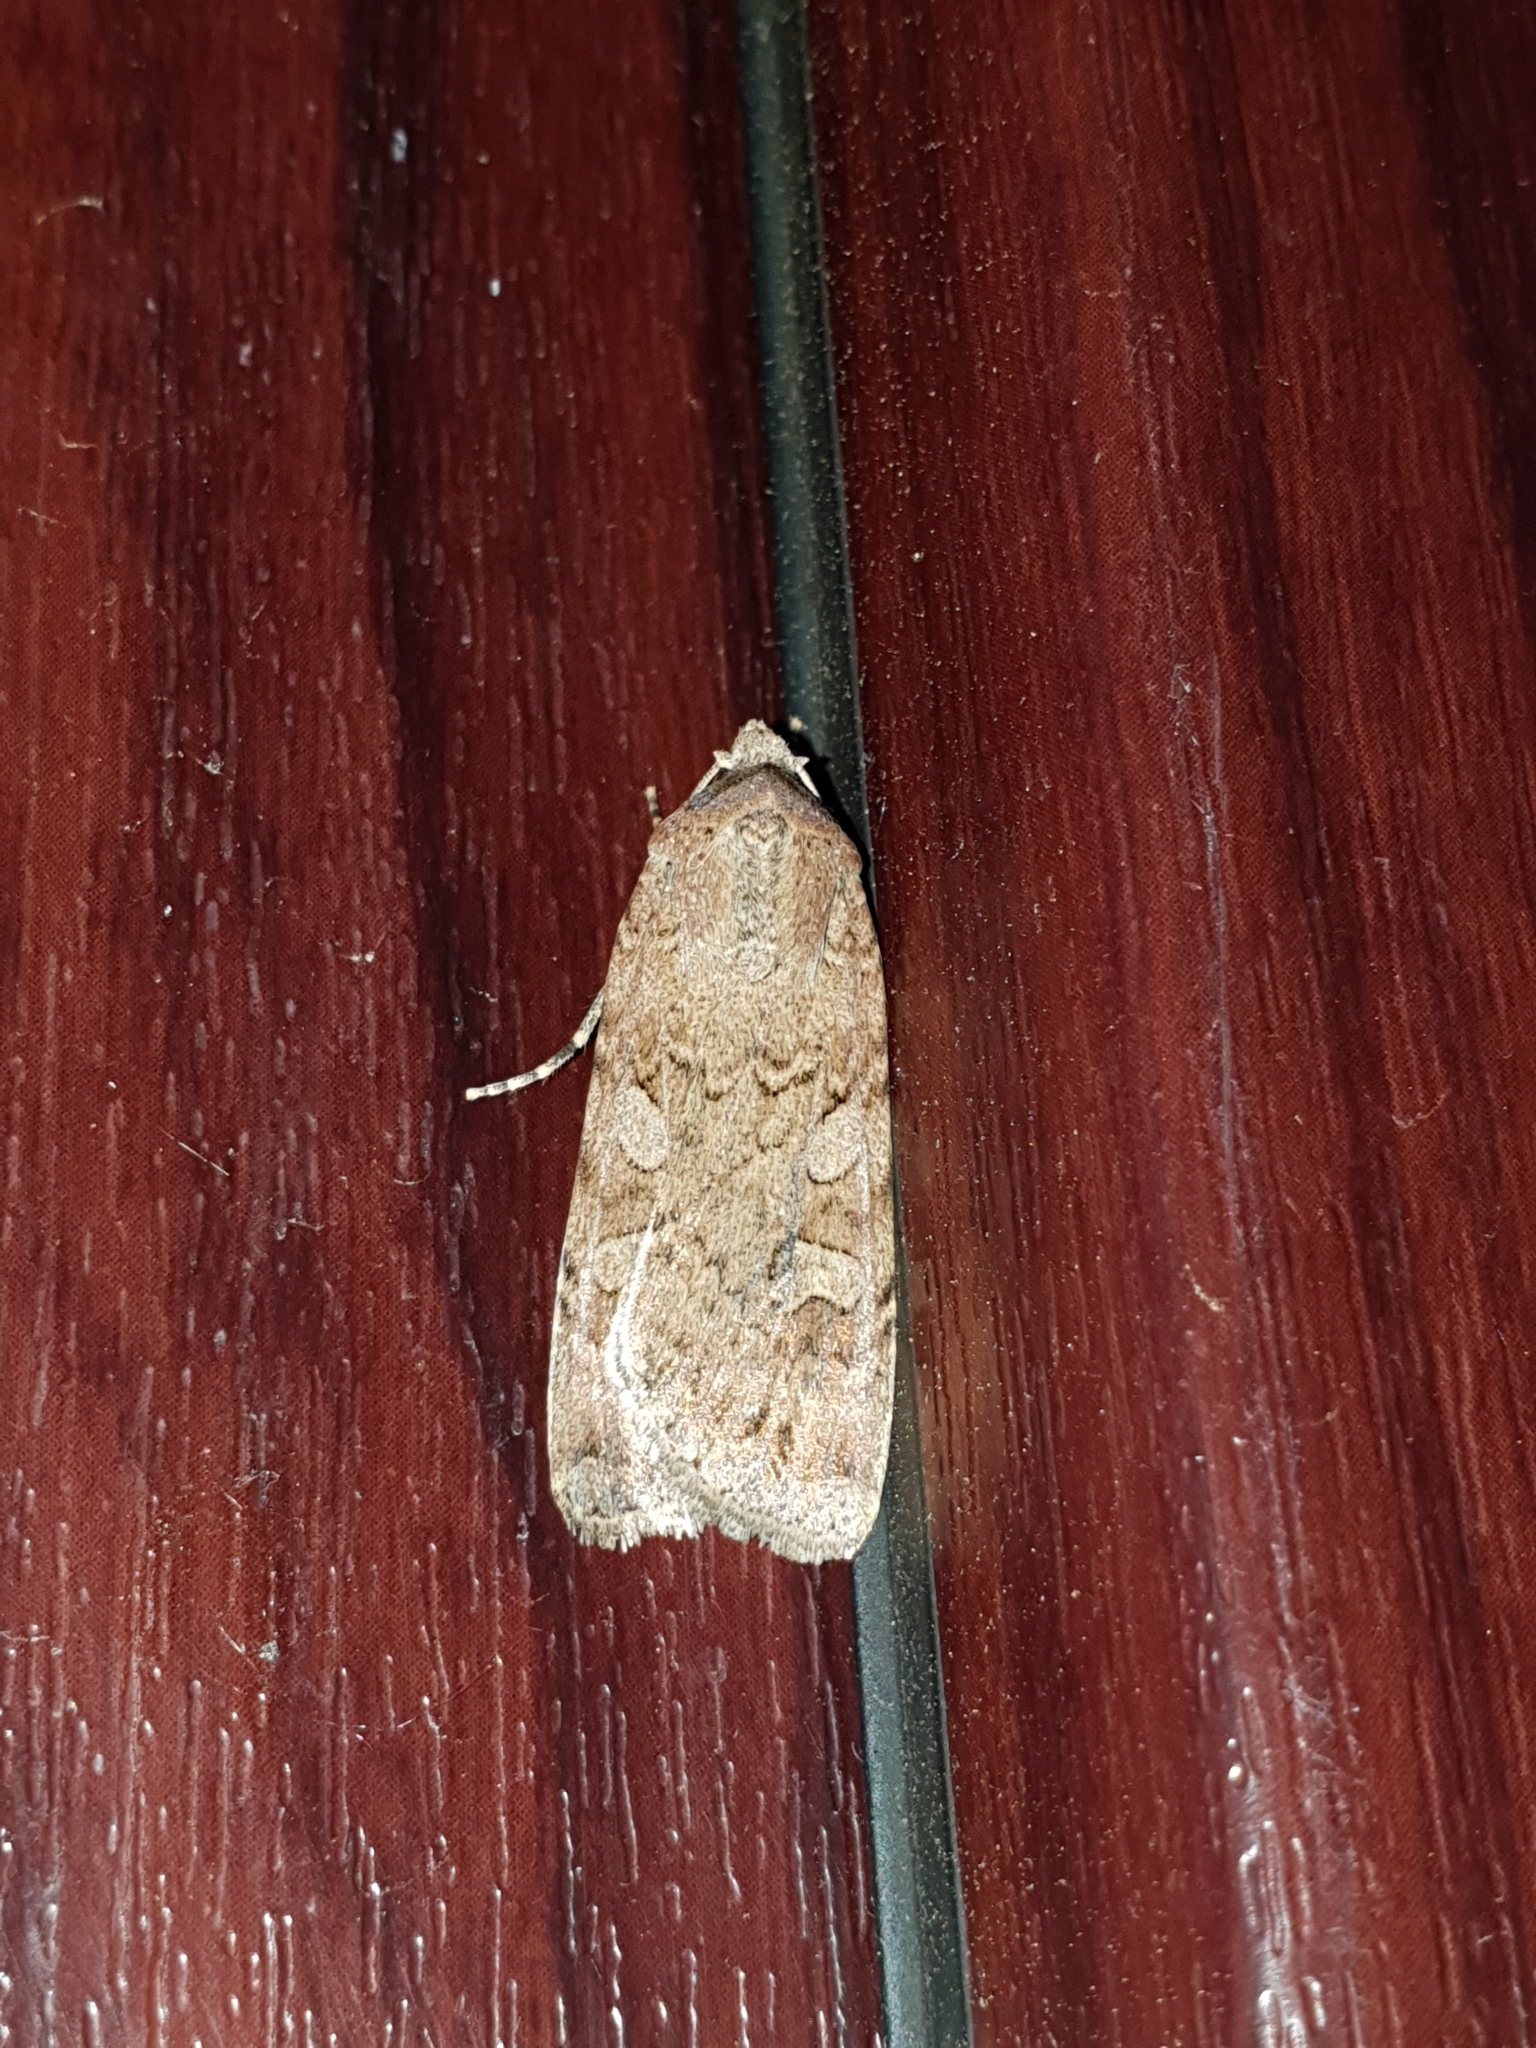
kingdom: Animalia
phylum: Arthropoda
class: Insecta
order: Lepidoptera
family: Noctuidae
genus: Euxoa
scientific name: Euxoa conspicua
